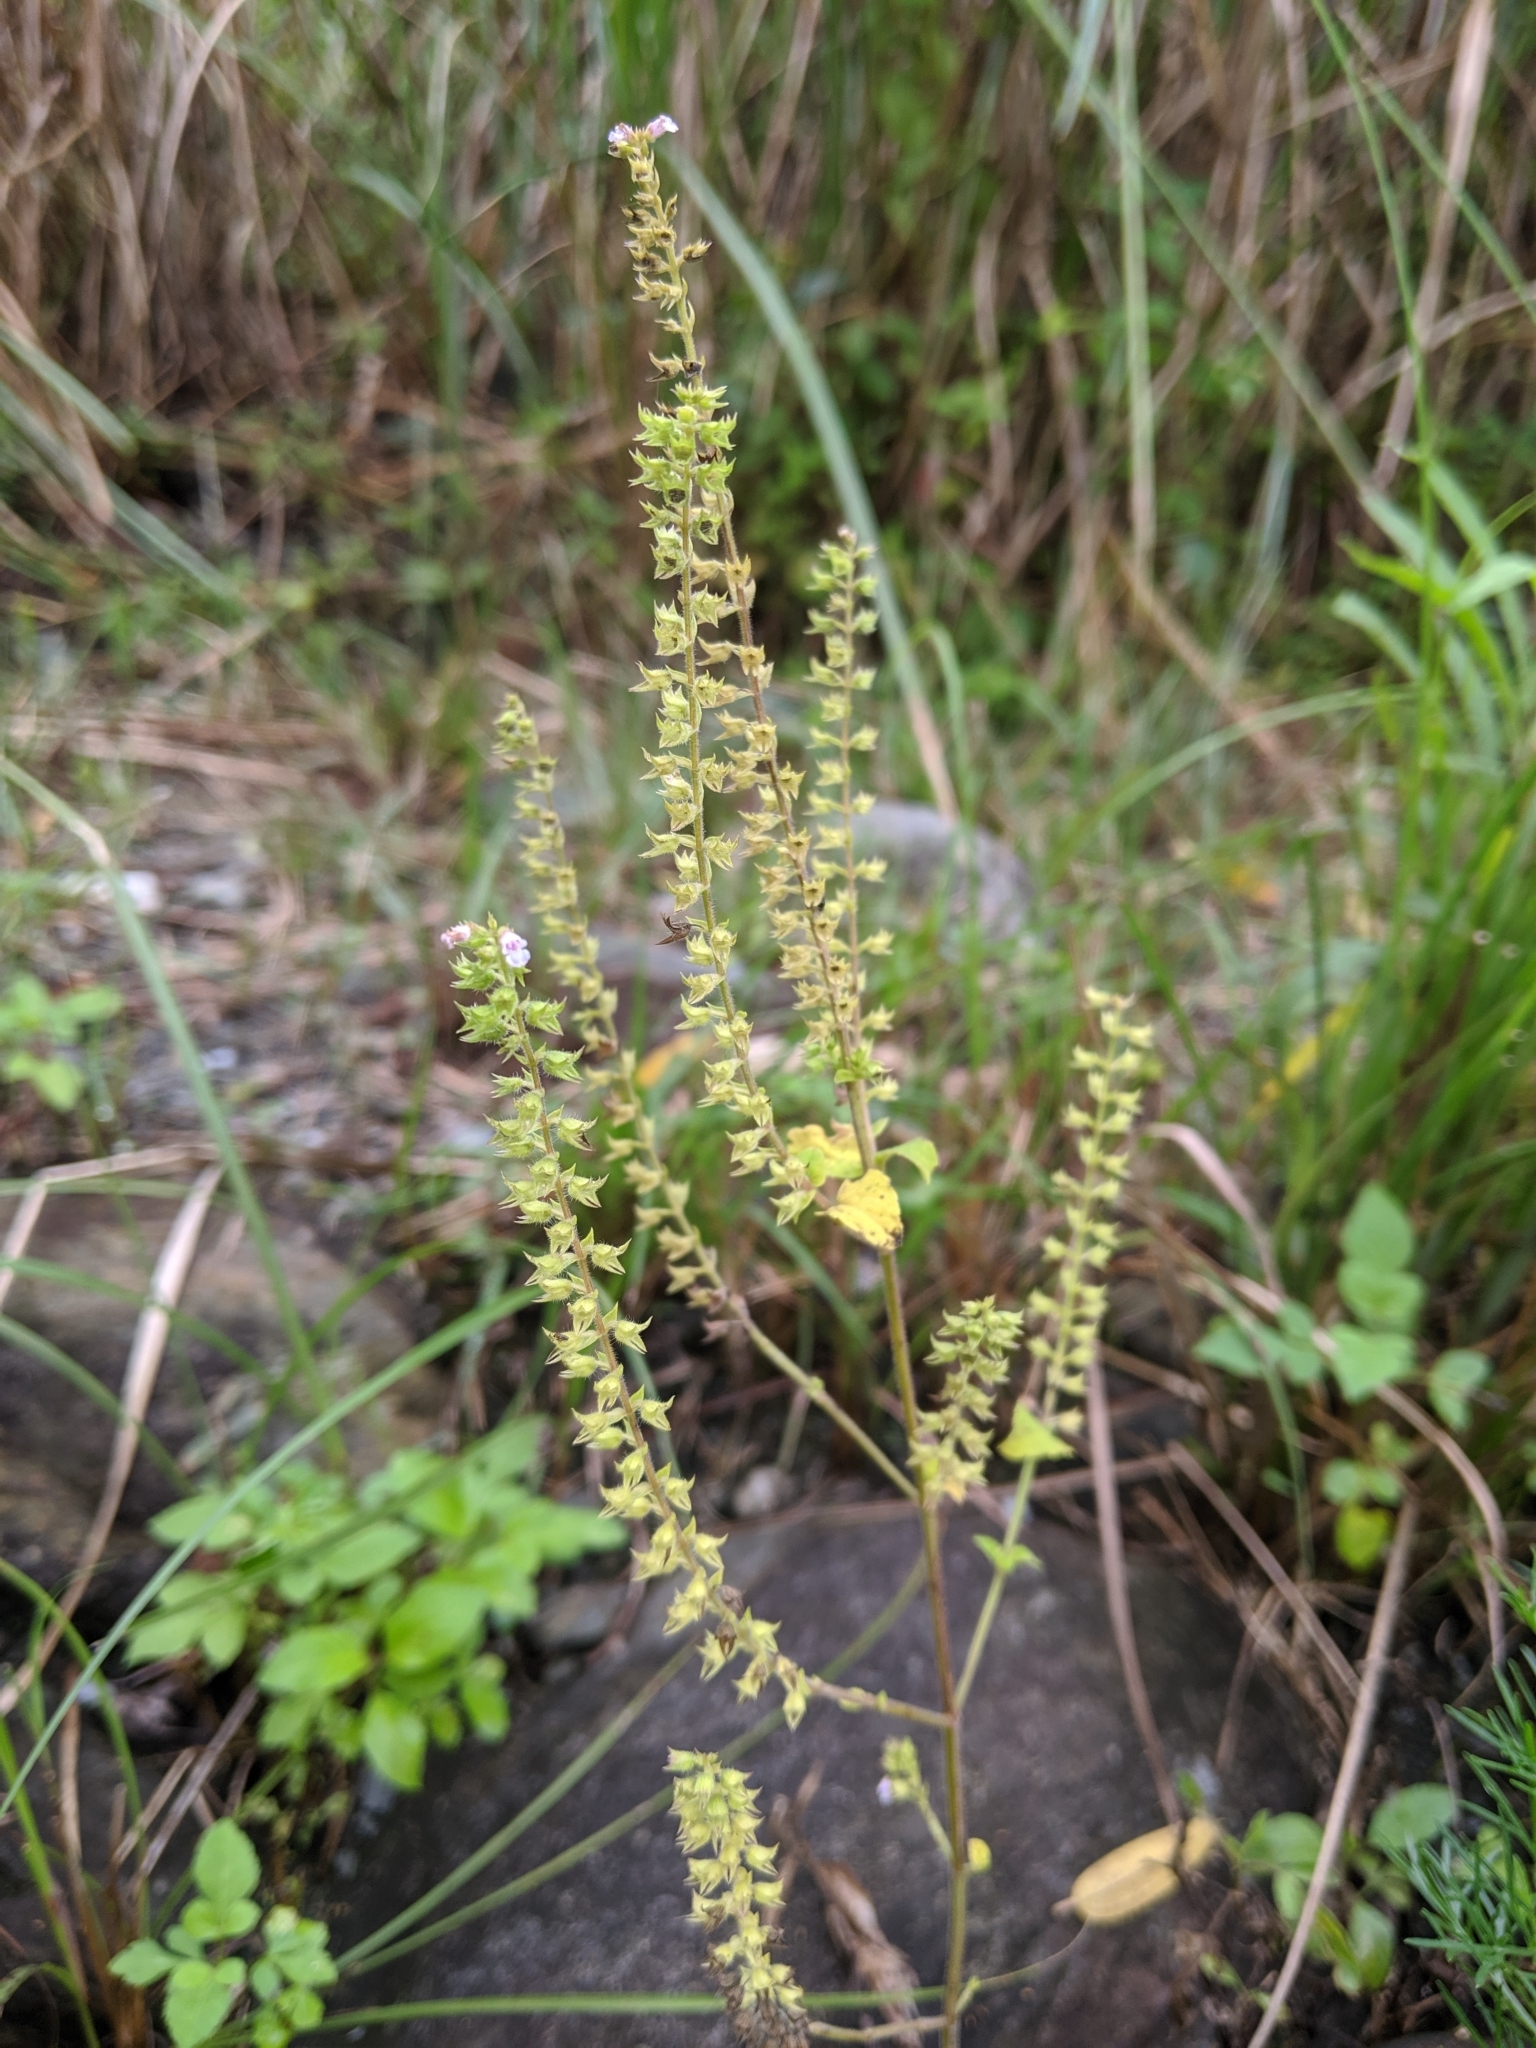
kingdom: Plantae
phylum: Tracheophyta
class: Magnoliopsida
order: Lamiales
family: Lamiaceae
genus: Salvia
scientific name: Salvia plebeia
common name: Australian sage
